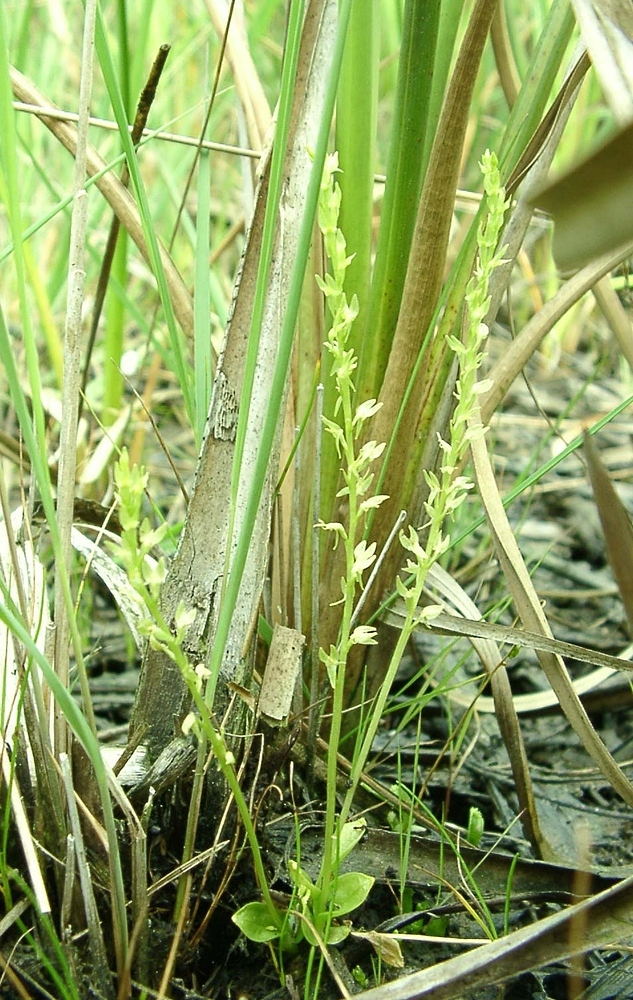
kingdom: Plantae
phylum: Tracheophyta
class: Liliopsida
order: Asparagales
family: Orchidaceae
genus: Hammarbya
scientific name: Hammarbya paludosa
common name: Bog orchid
